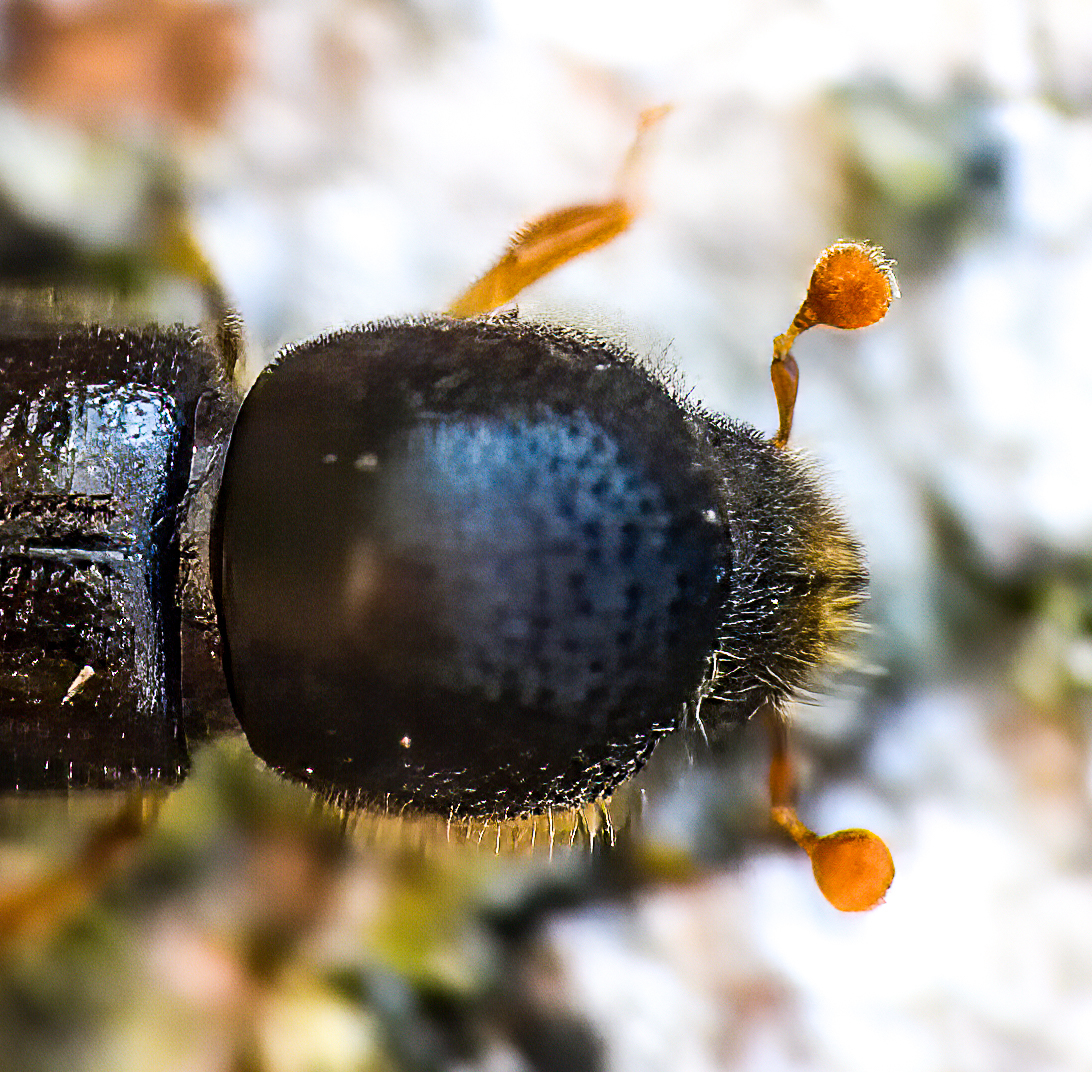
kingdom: Animalia
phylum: Arthropoda
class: Insecta
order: Coleoptera
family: Curculionidae
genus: Xyloterinus
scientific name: Xyloterinus politus
